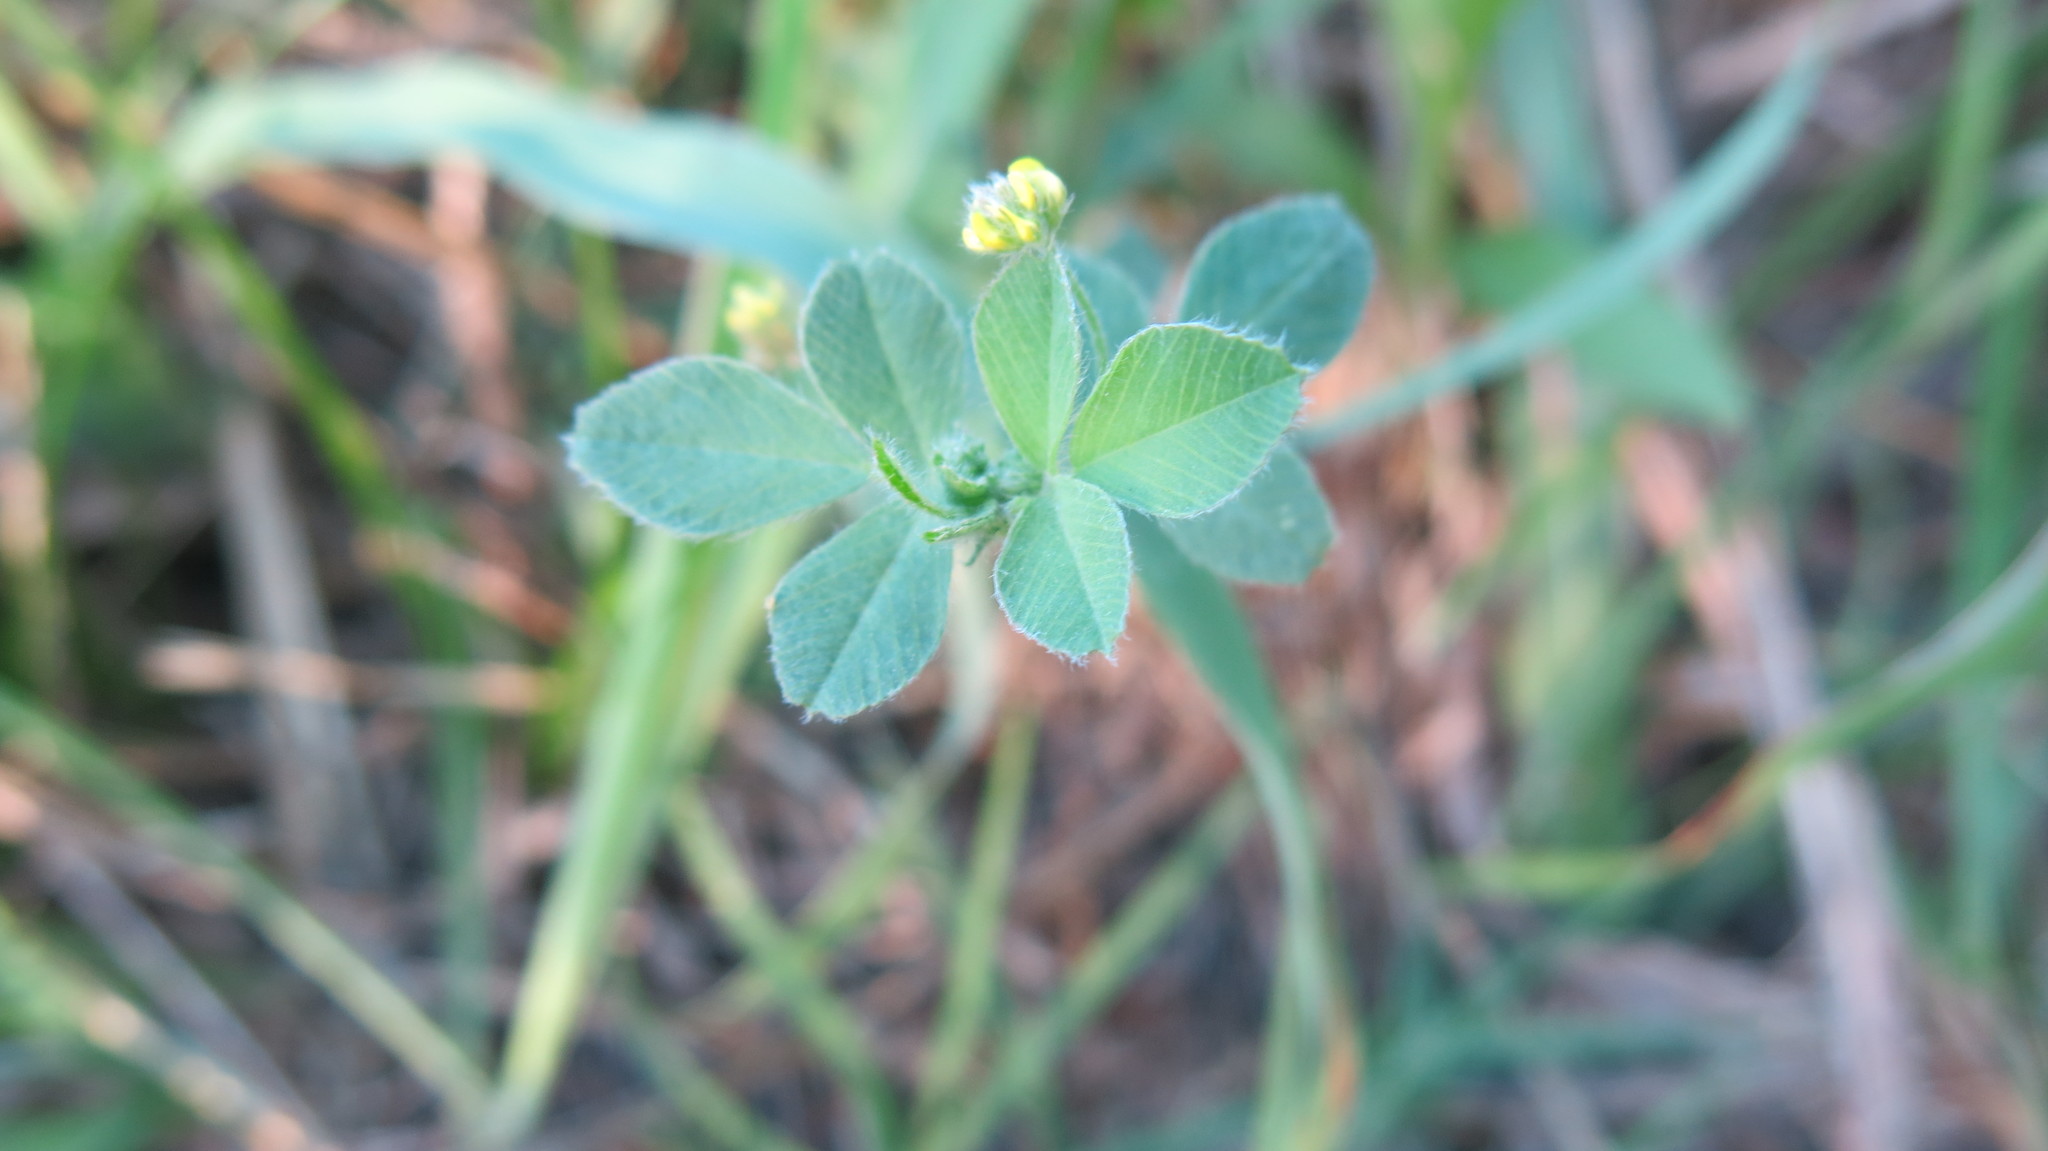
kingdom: Plantae
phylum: Tracheophyta
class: Magnoliopsida
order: Fabales
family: Fabaceae
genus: Medicago
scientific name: Medicago lupulina
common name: Black medick
